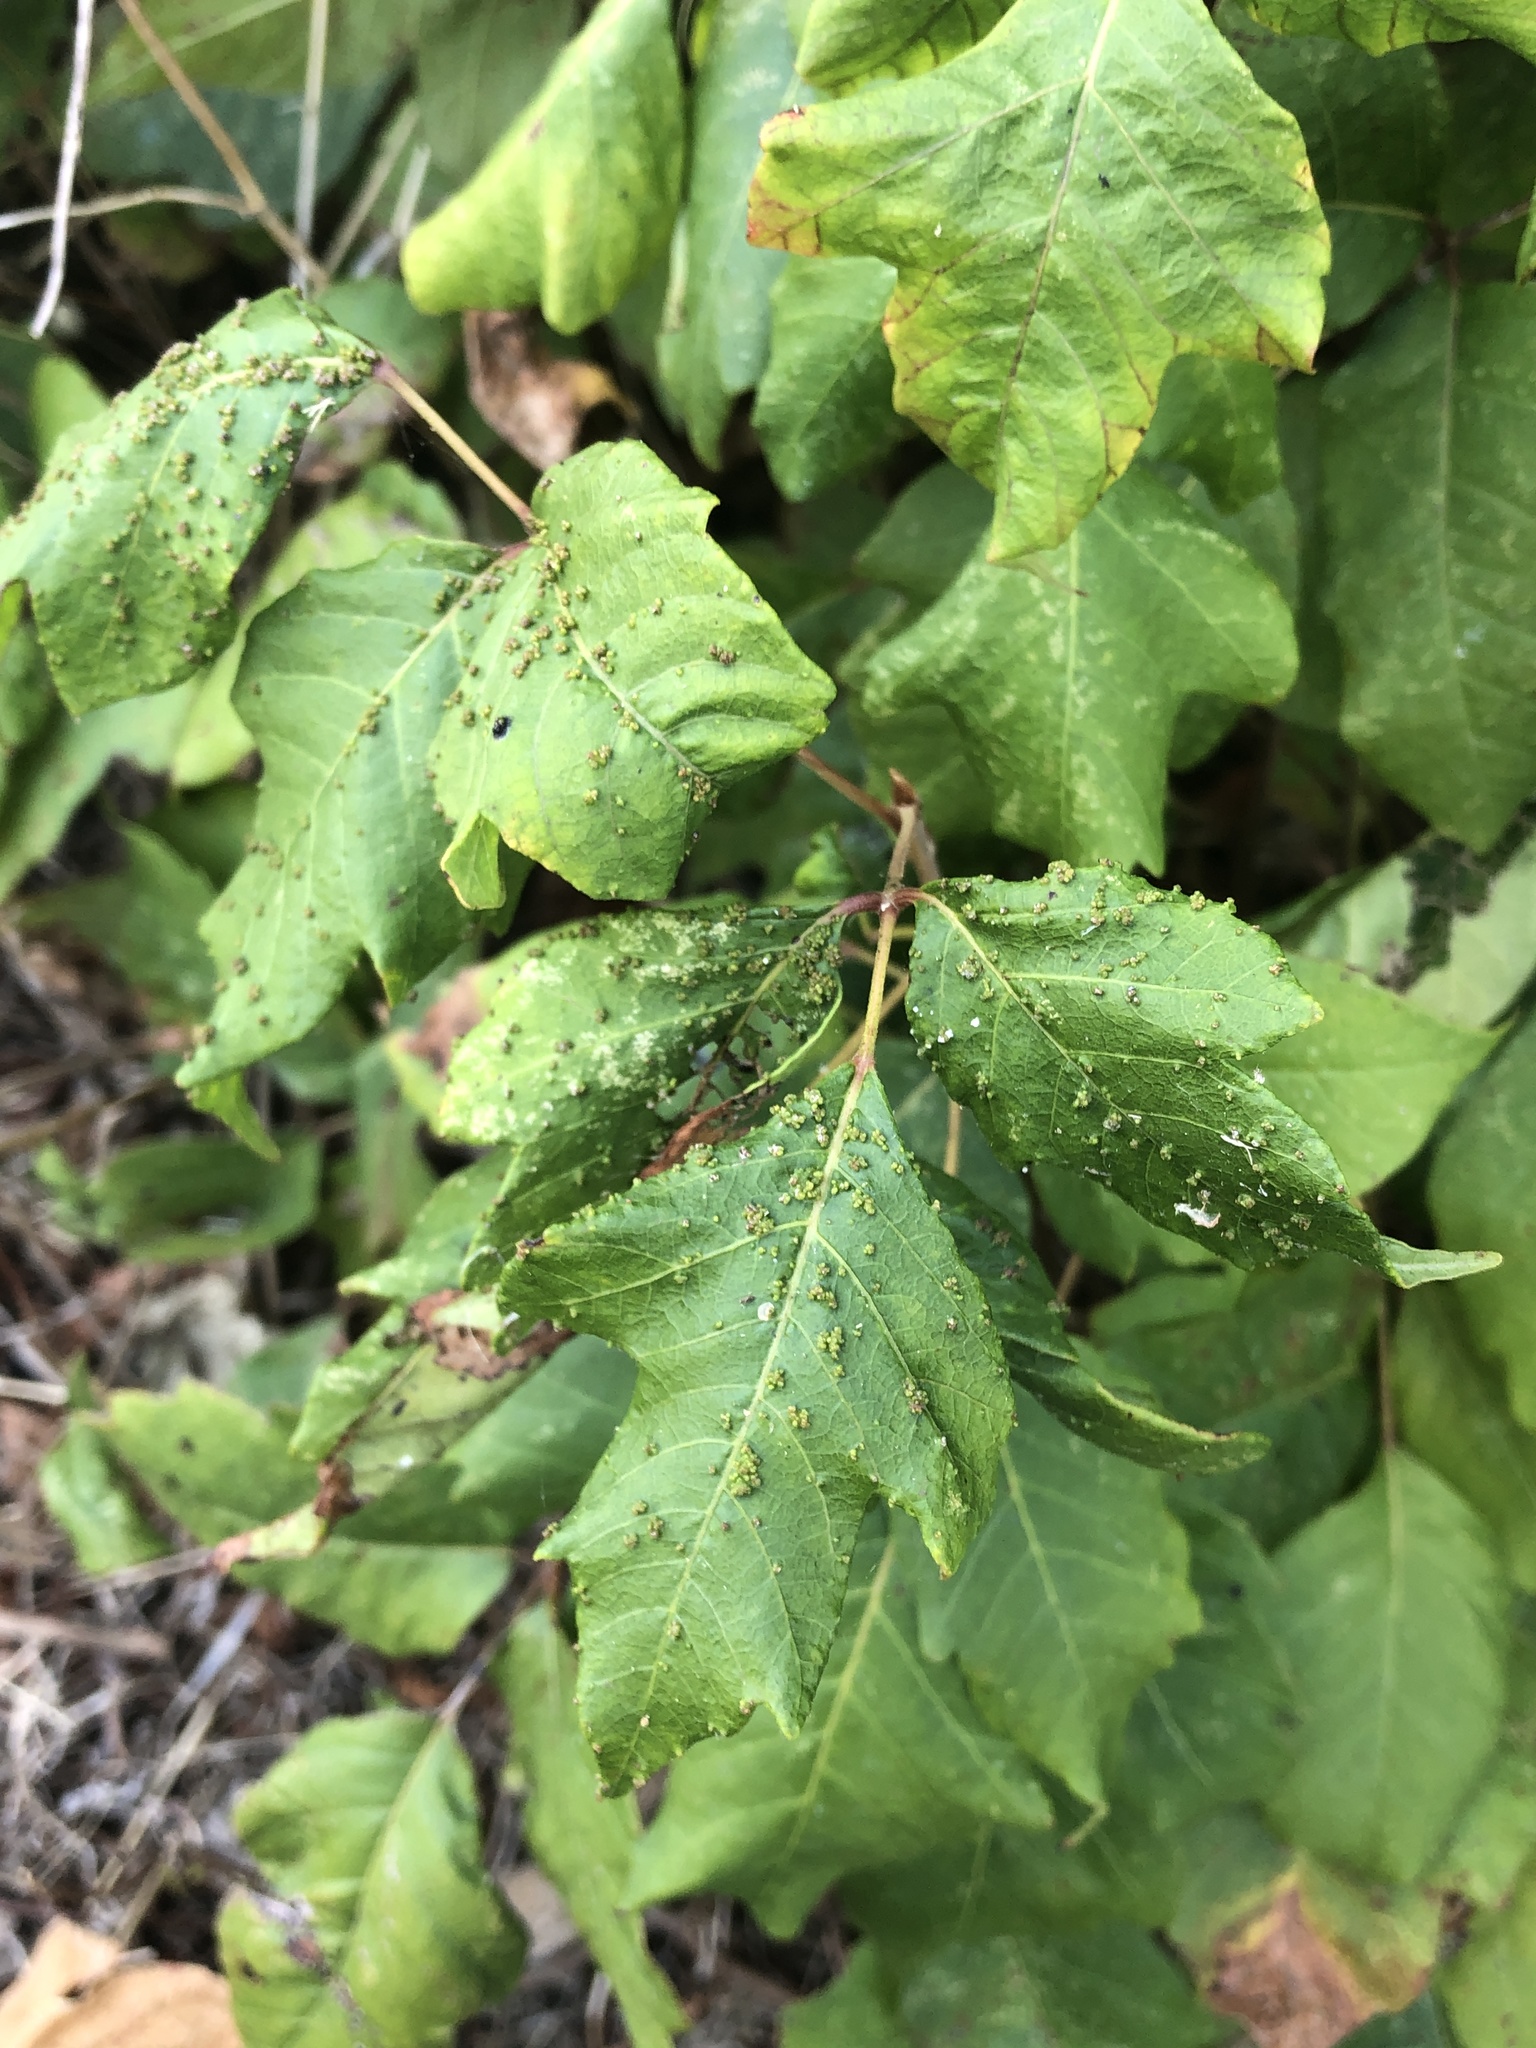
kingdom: Animalia
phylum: Arthropoda
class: Arachnida
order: Trombidiformes
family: Eriophyidae
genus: Aculops
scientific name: Aculops
